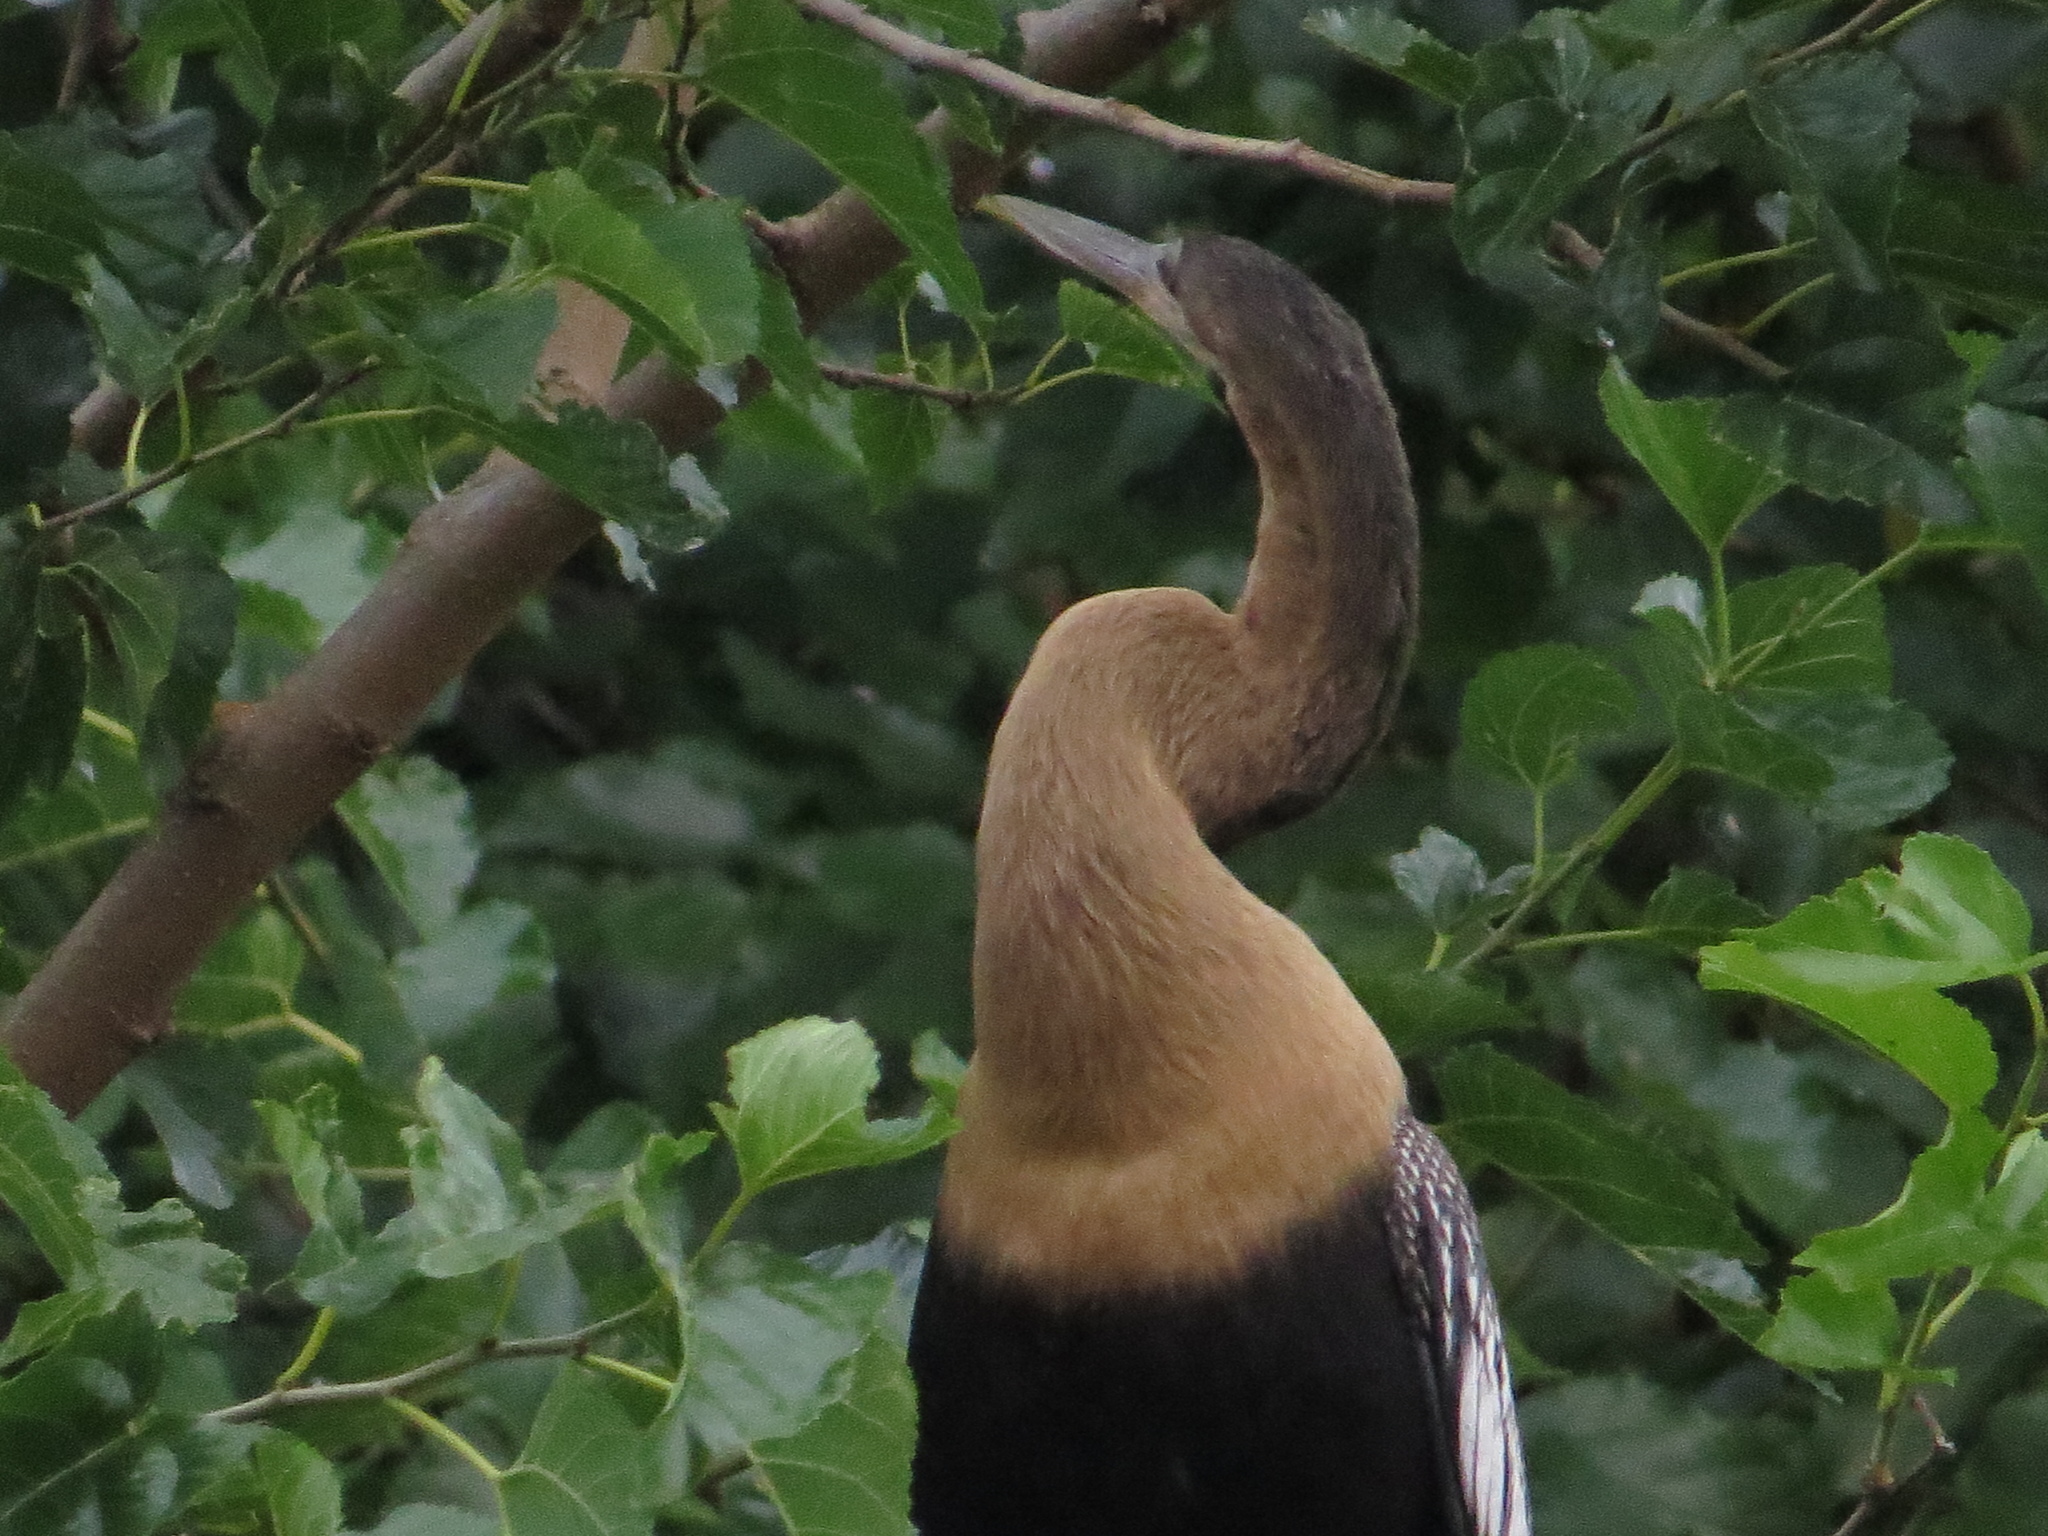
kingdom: Animalia
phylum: Chordata
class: Aves
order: Suliformes
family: Anhingidae
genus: Anhinga
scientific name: Anhinga anhinga
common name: Anhinga
